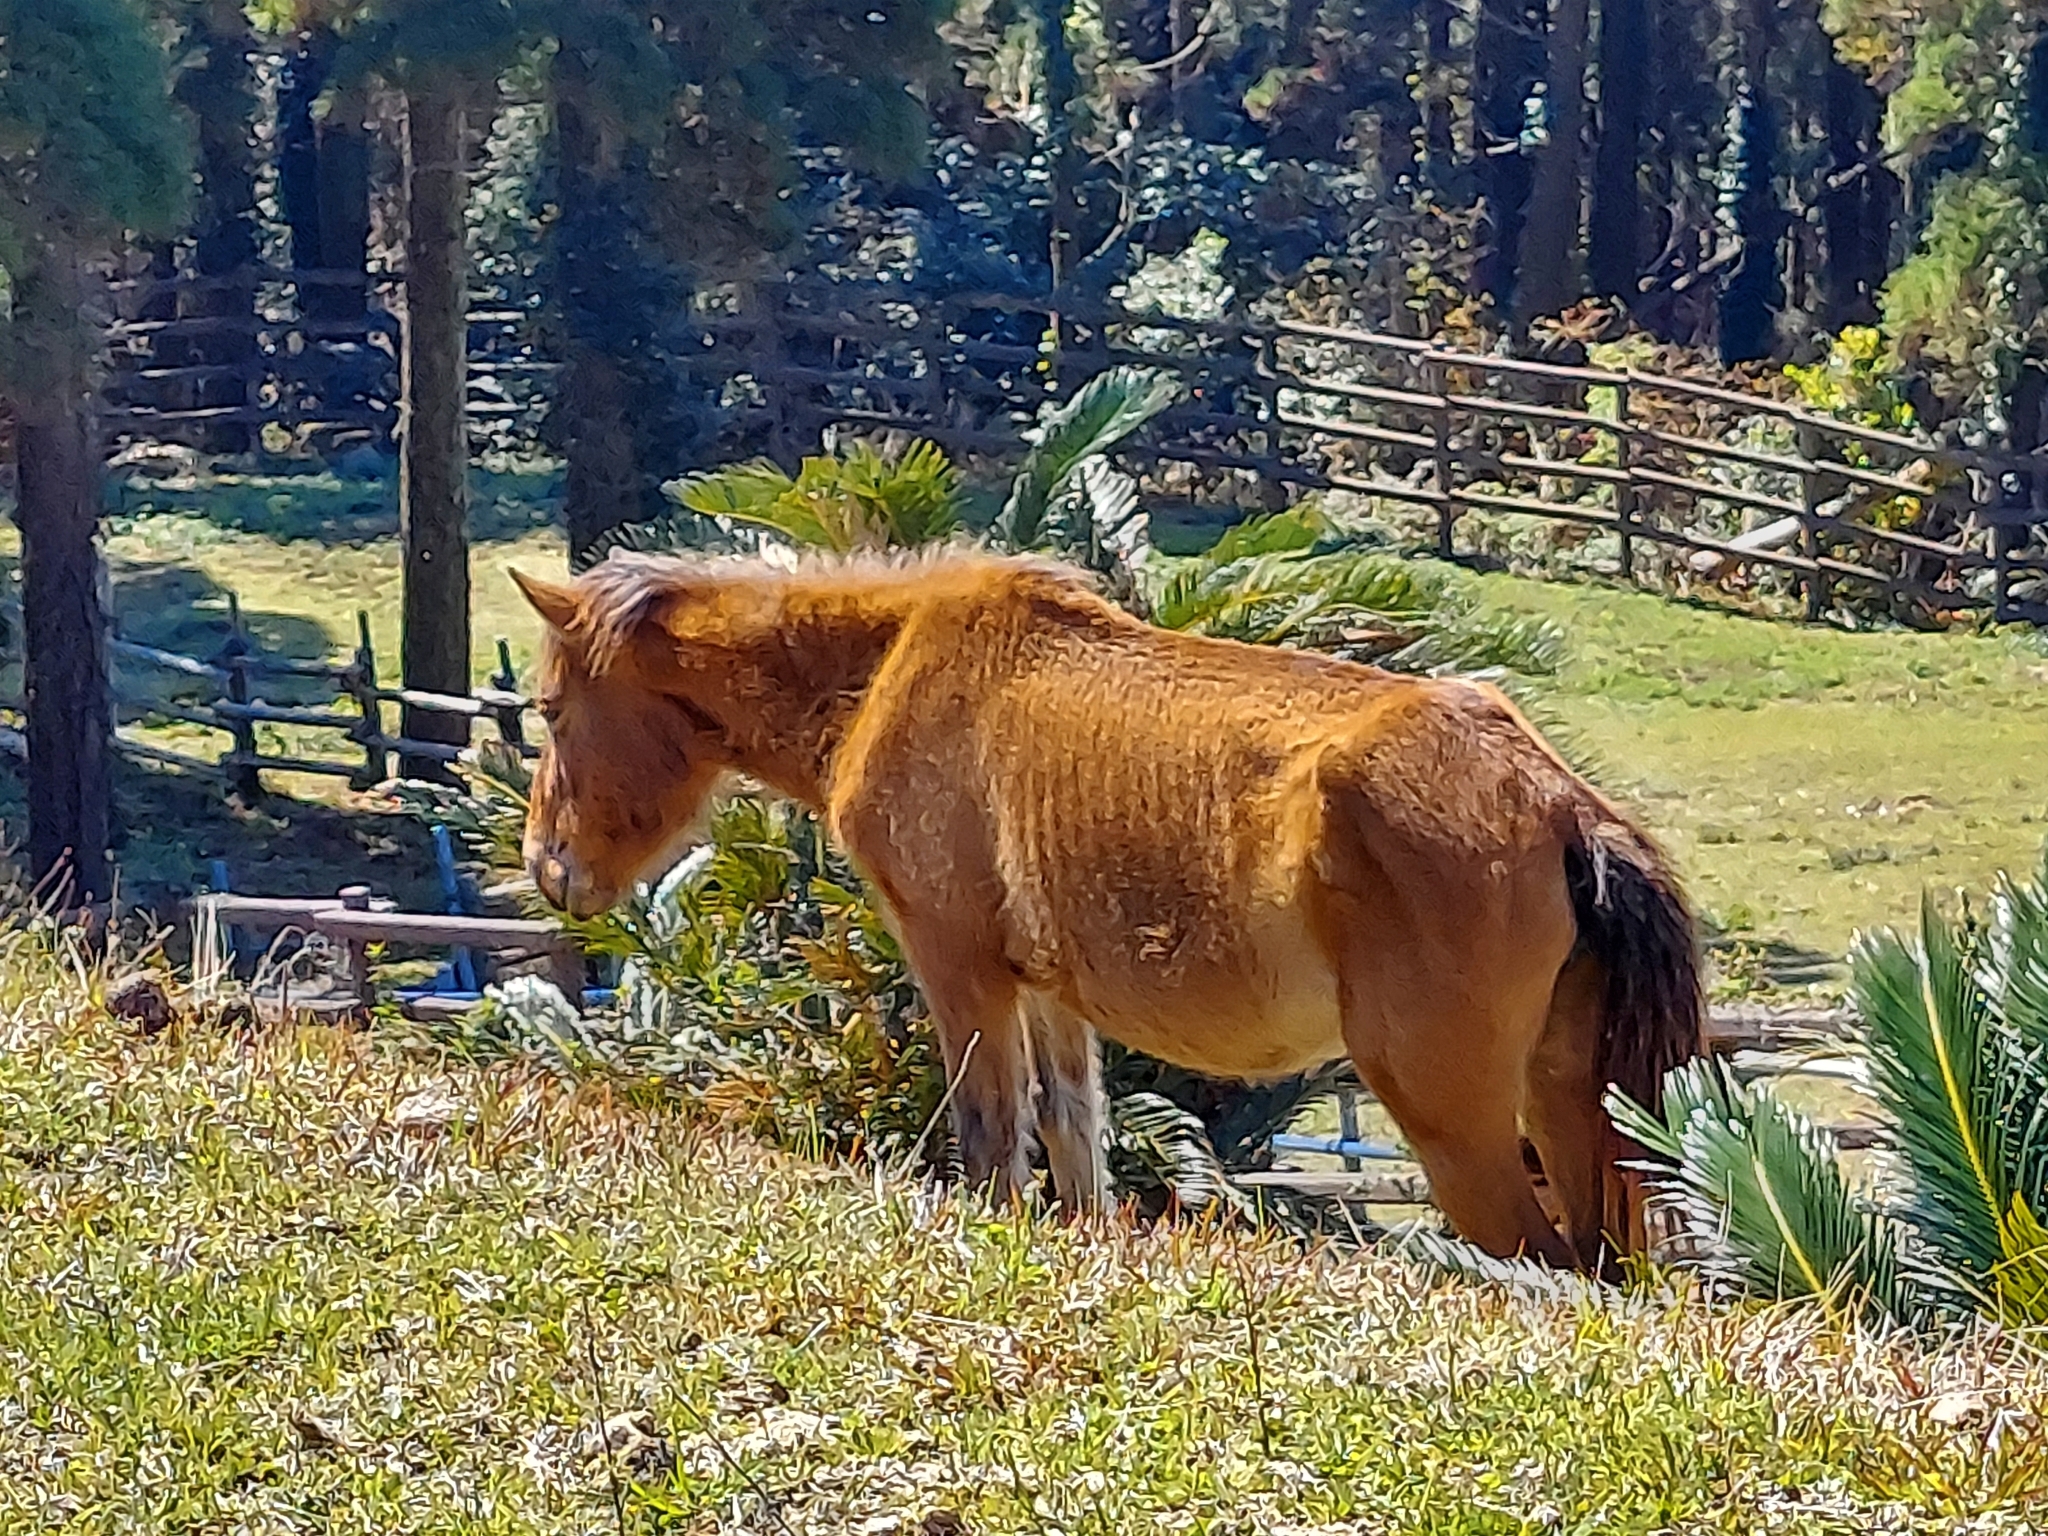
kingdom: Animalia
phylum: Chordata
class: Mammalia
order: Perissodactyla
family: Equidae
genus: Equus
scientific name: Equus caballus
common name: Horse
